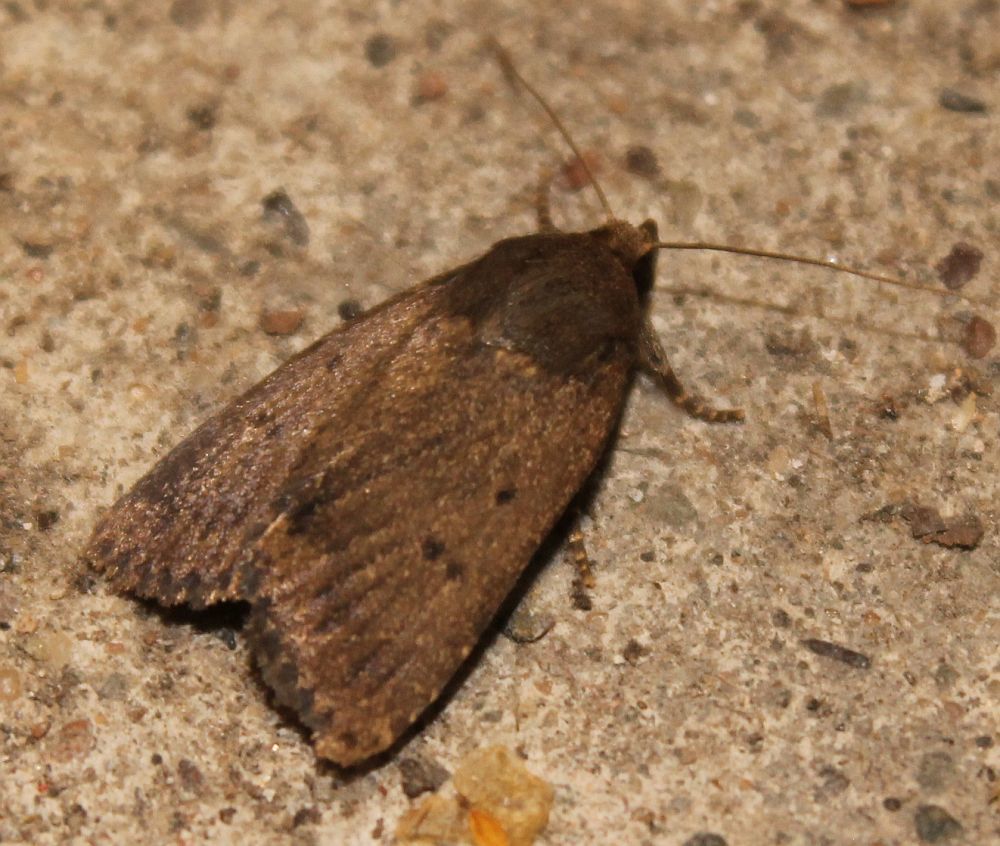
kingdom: Animalia
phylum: Arthropoda
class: Insecta
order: Lepidoptera
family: Noctuidae
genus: Amphipyra
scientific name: Amphipyra tragopoginis
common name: Mouse moth
